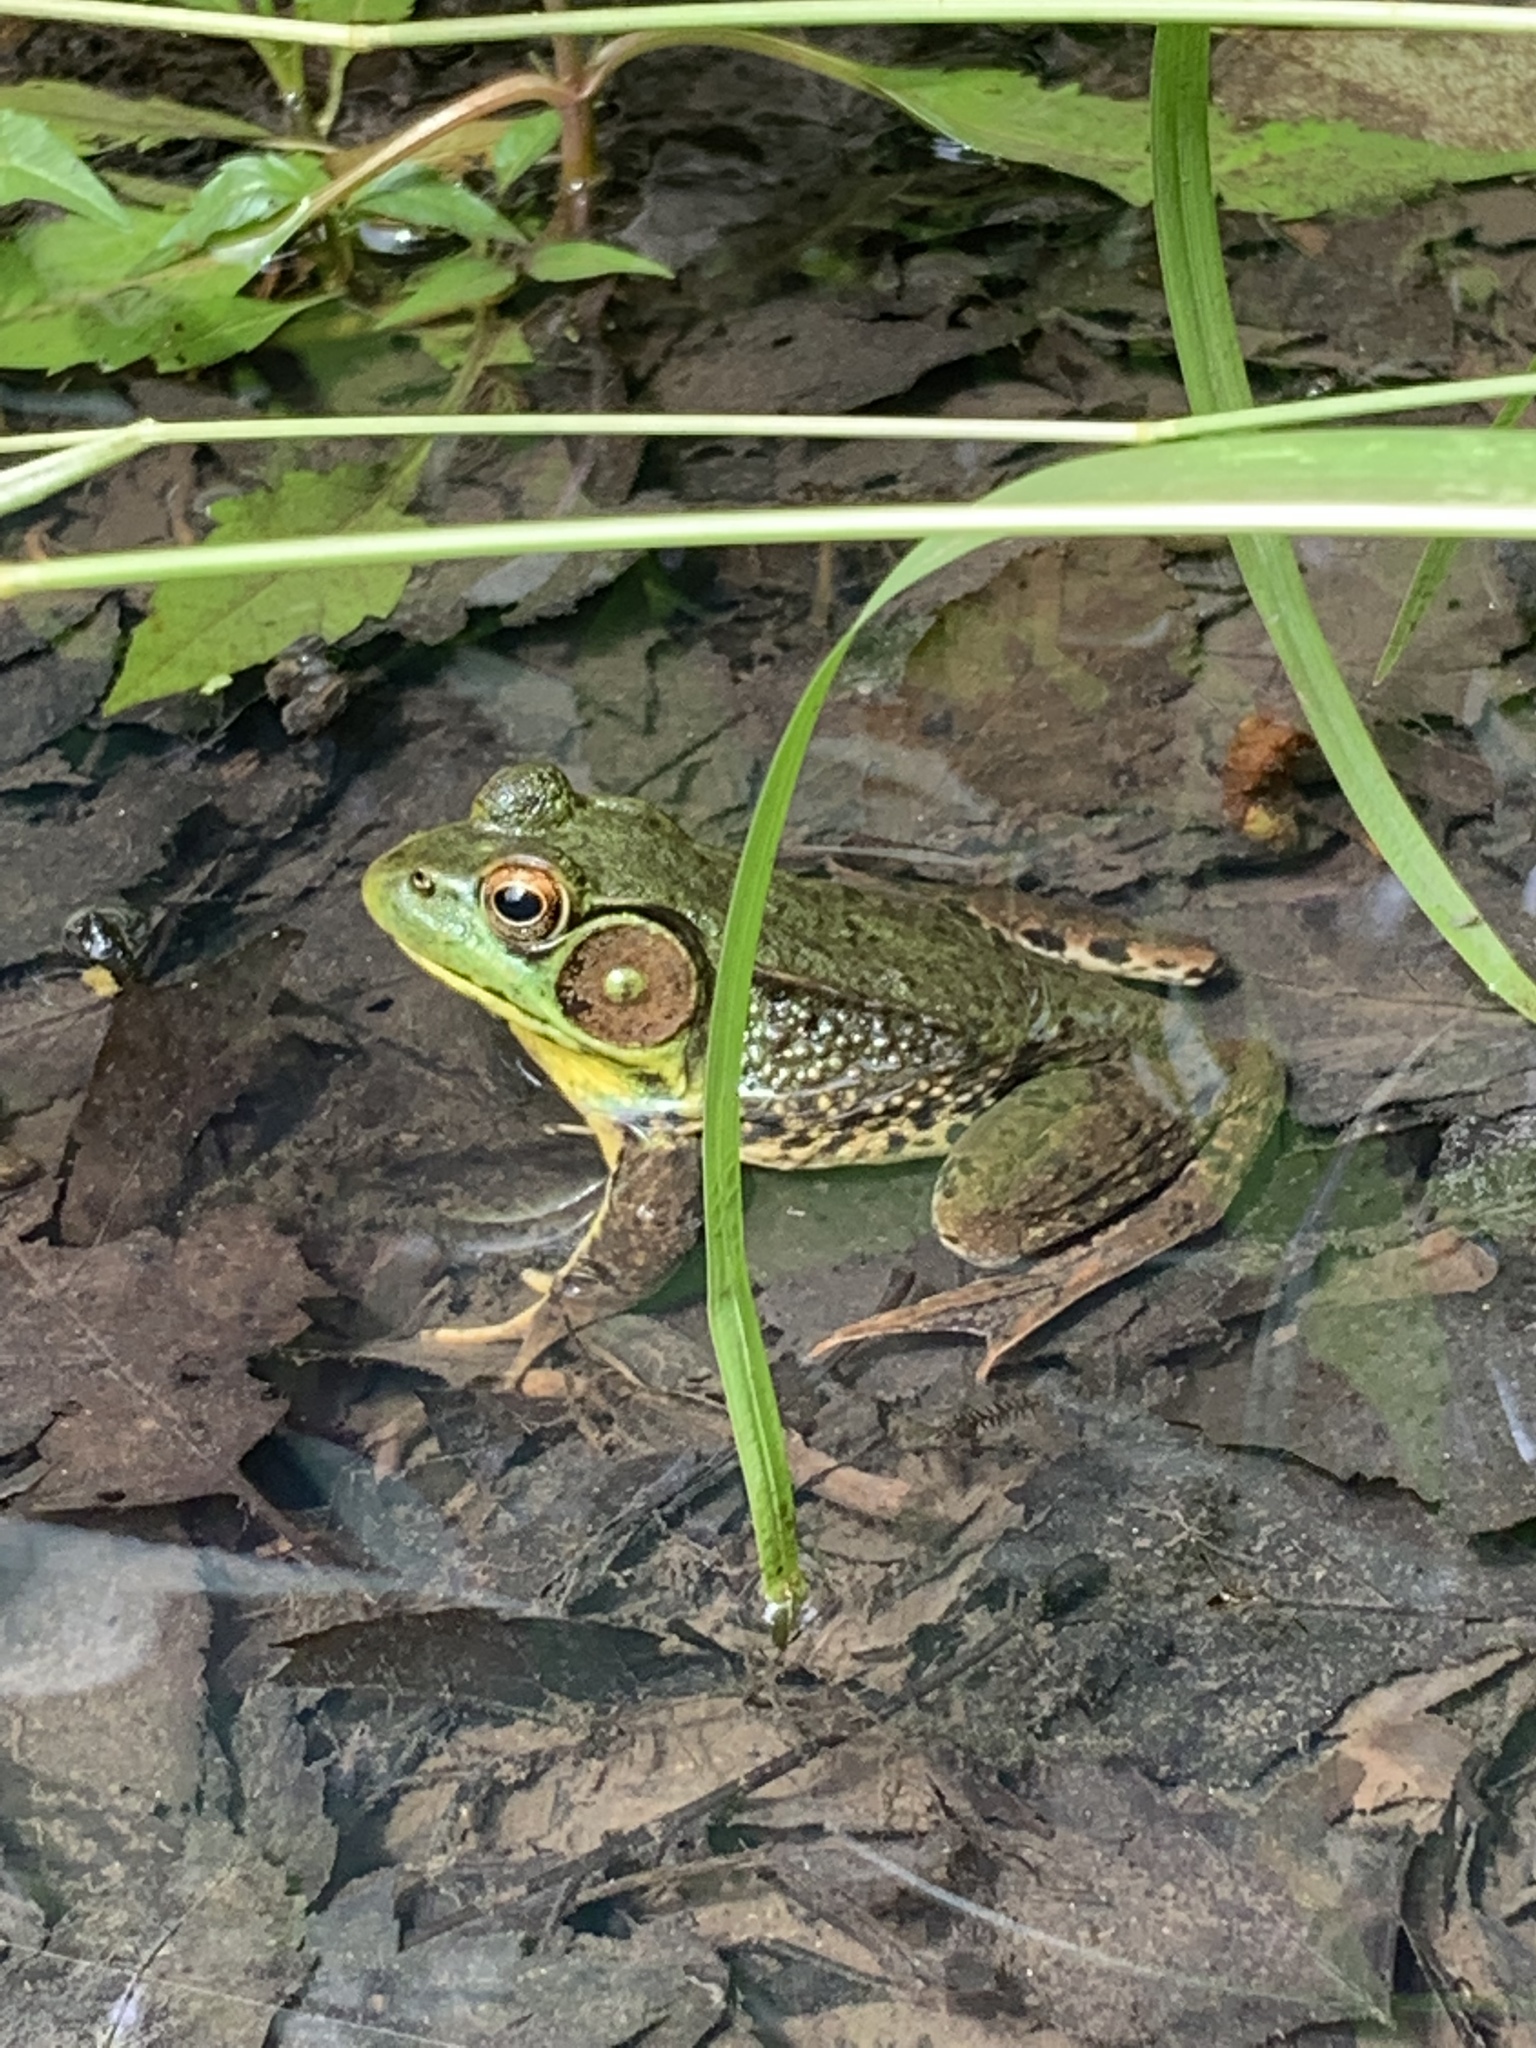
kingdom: Animalia
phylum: Chordata
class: Amphibia
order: Anura
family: Ranidae
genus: Lithobates
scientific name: Lithobates clamitans
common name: Green frog
